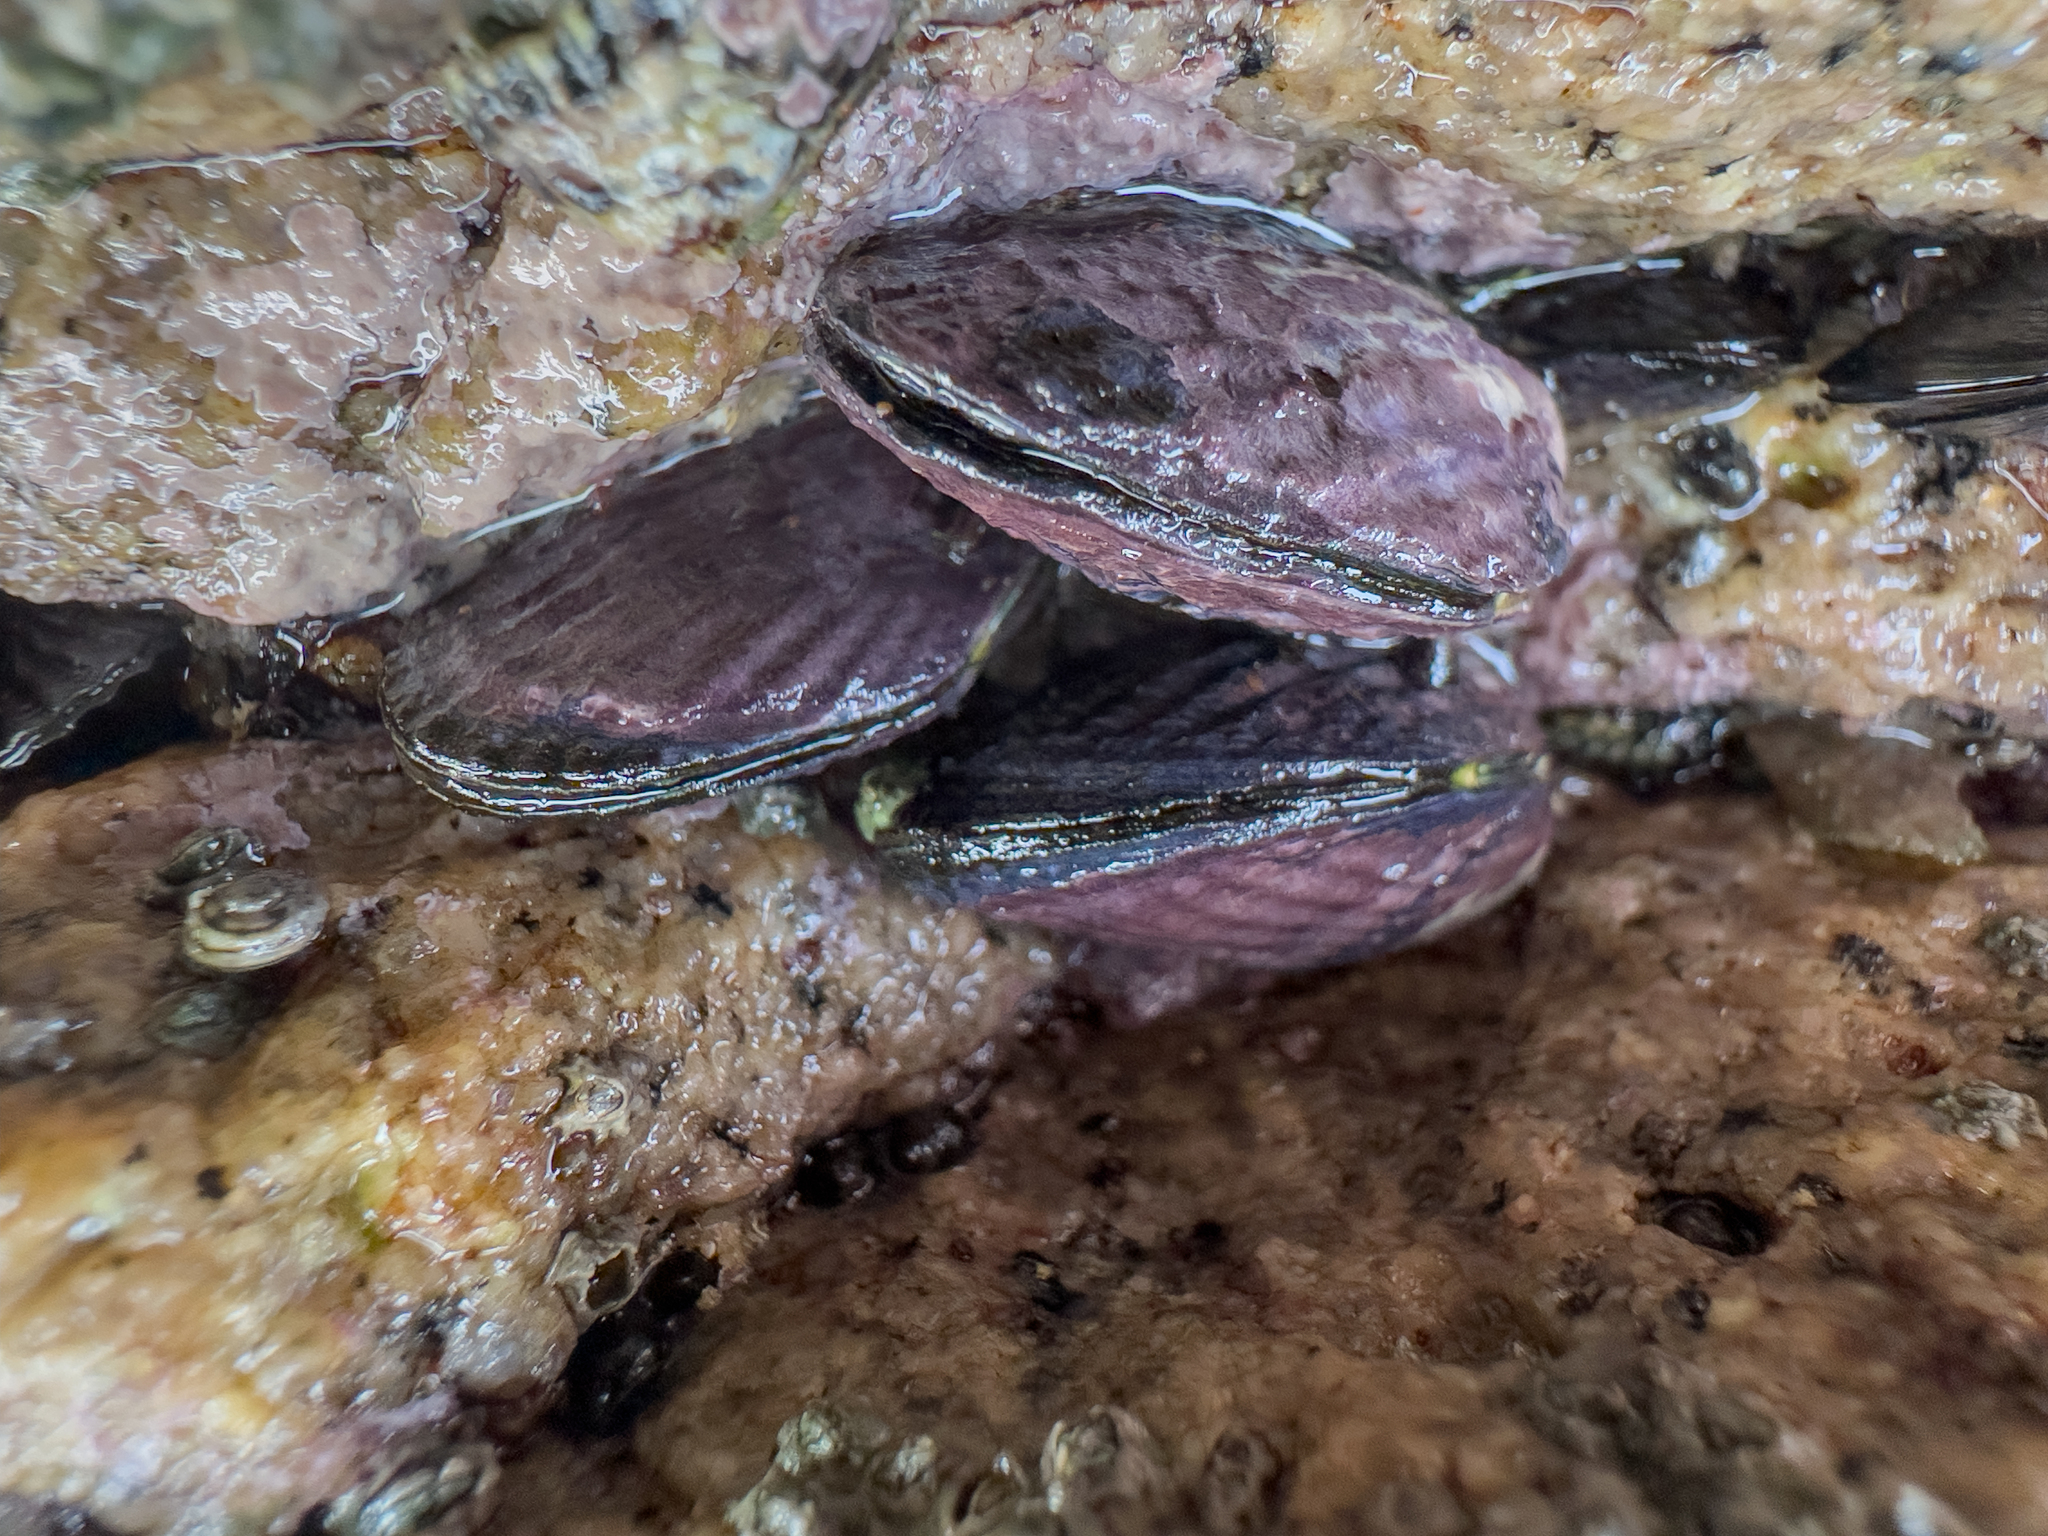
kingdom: Animalia
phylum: Mollusca
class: Bivalvia
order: Mytilida
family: Mytilidae
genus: Aulacomya
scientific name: Aulacomya maoriana
